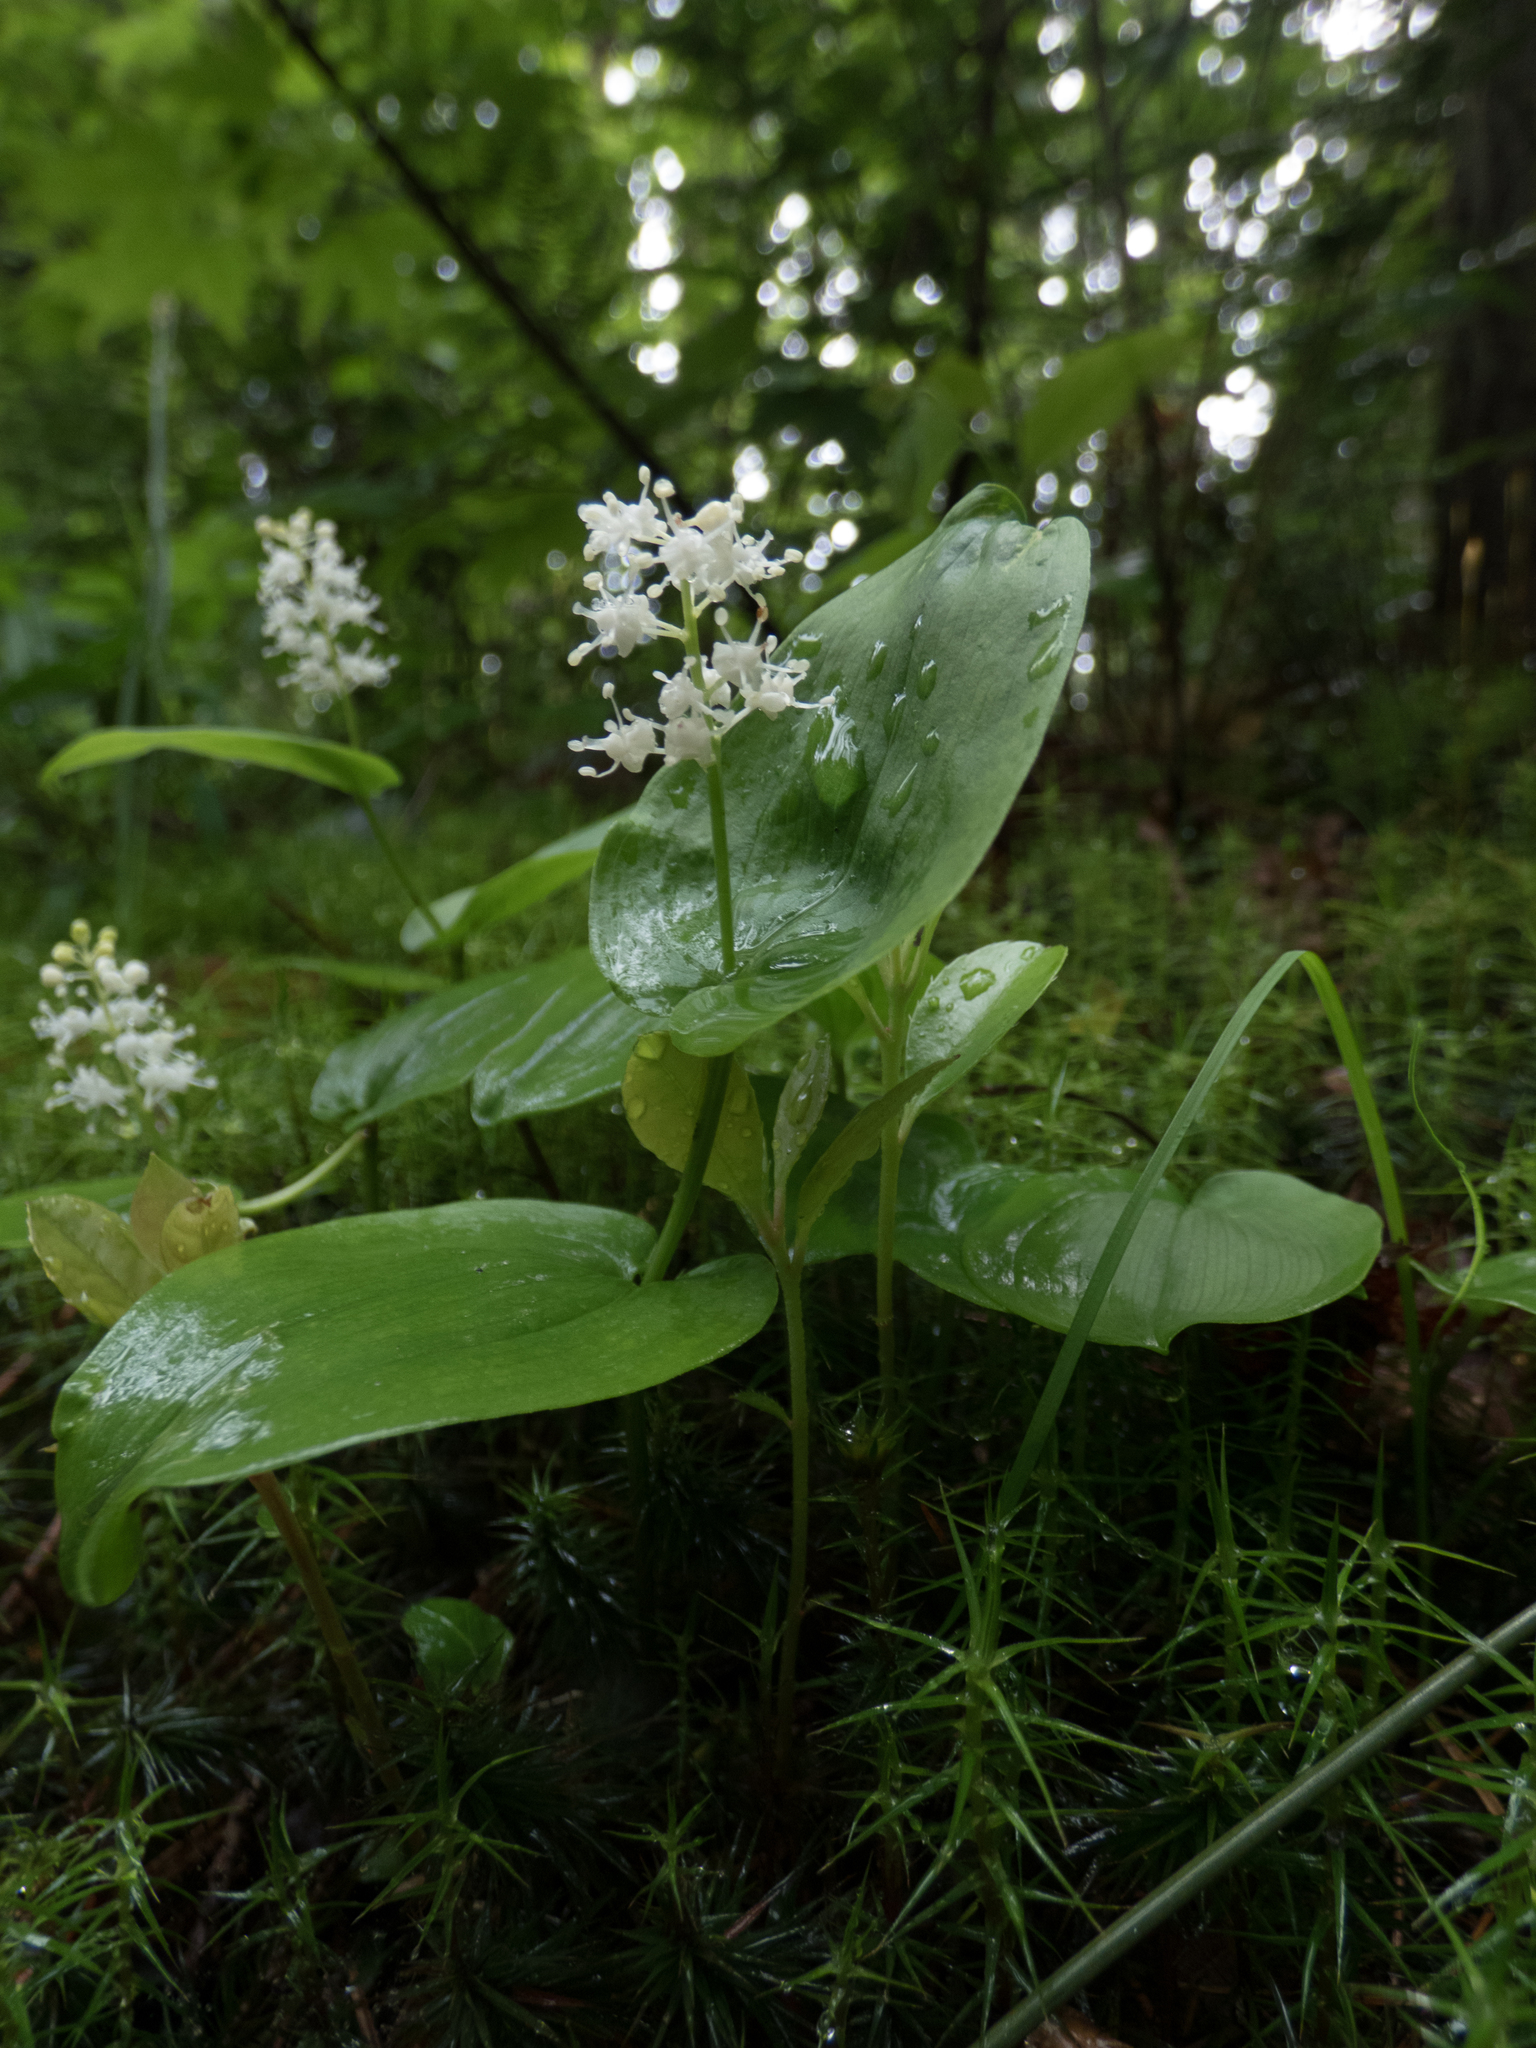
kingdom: Plantae
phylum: Tracheophyta
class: Liliopsida
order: Asparagales
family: Asparagaceae
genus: Maianthemum
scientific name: Maianthemum canadense
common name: False lily-of-the-valley
